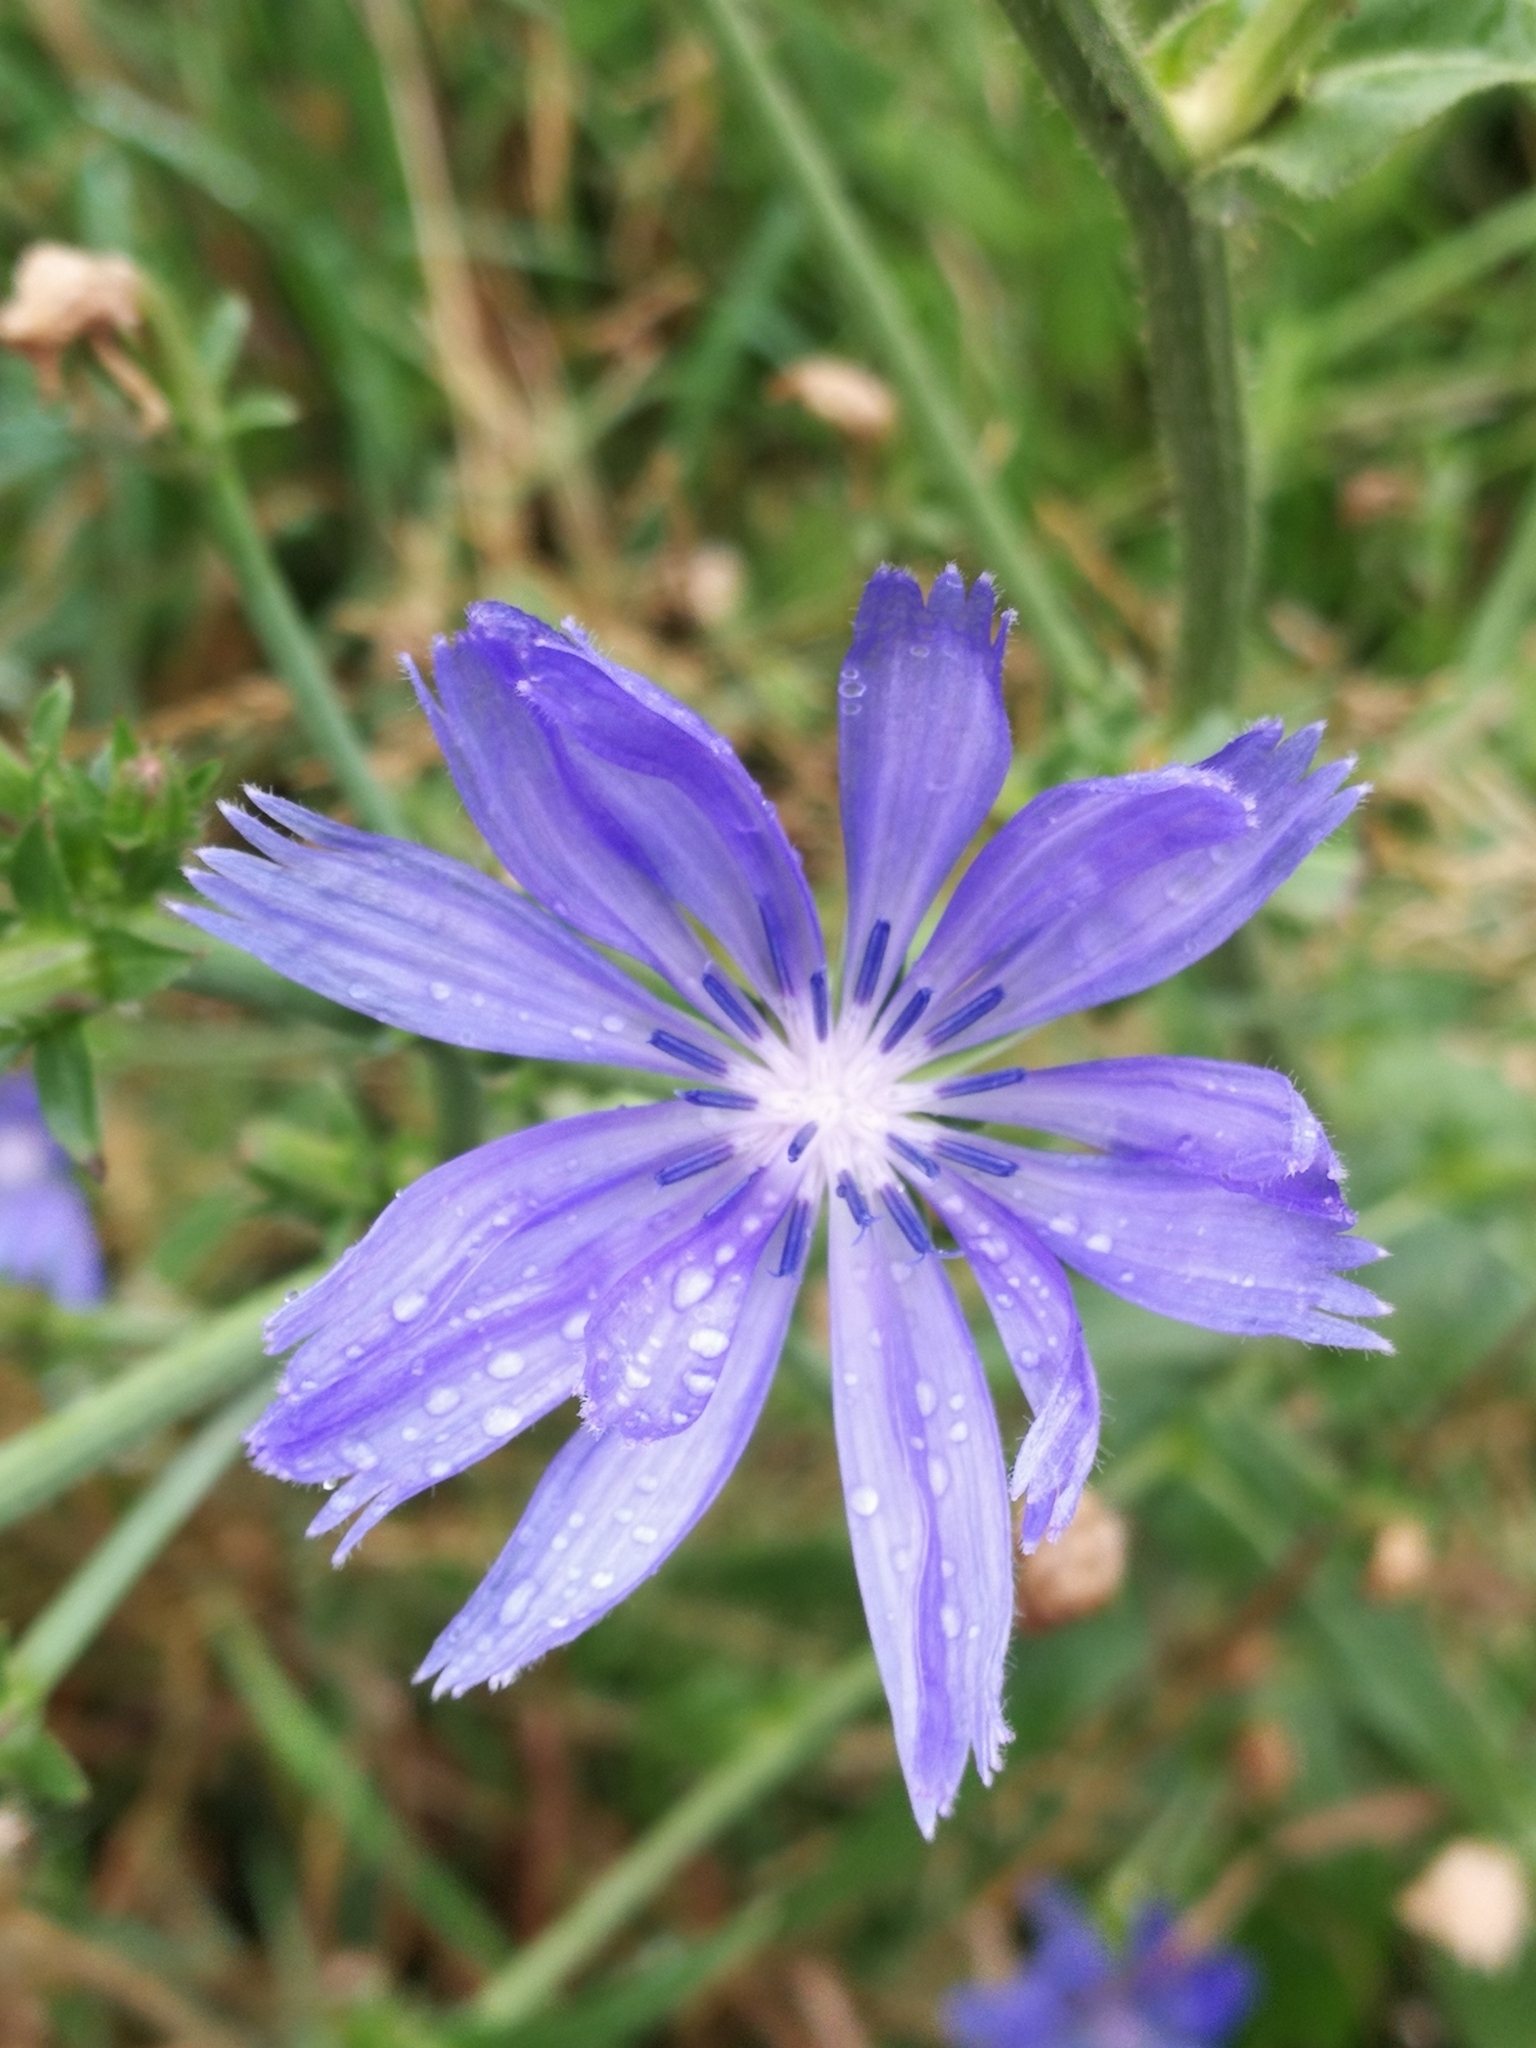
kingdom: Plantae
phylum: Tracheophyta
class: Magnoliopsida
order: Asterales
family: Asteraceae
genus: Cichorium
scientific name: Cichorium intybus
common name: Chicory
